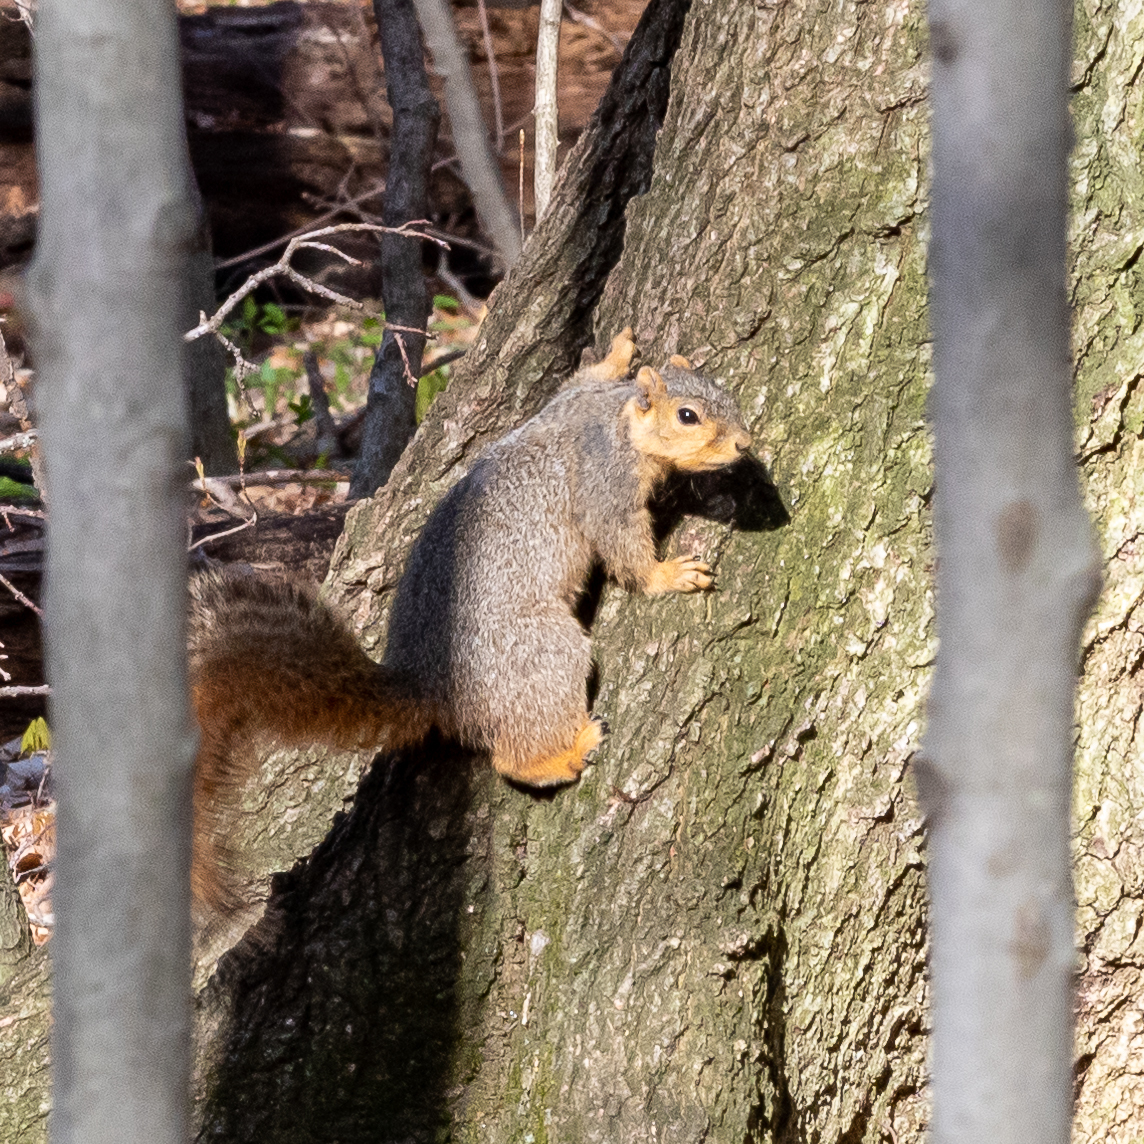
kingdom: Animalia
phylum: Chordata
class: Mammalia
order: Rodentia
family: Sciuridae
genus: Sciurus
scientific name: Sciurus niger
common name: Fox squirrel
